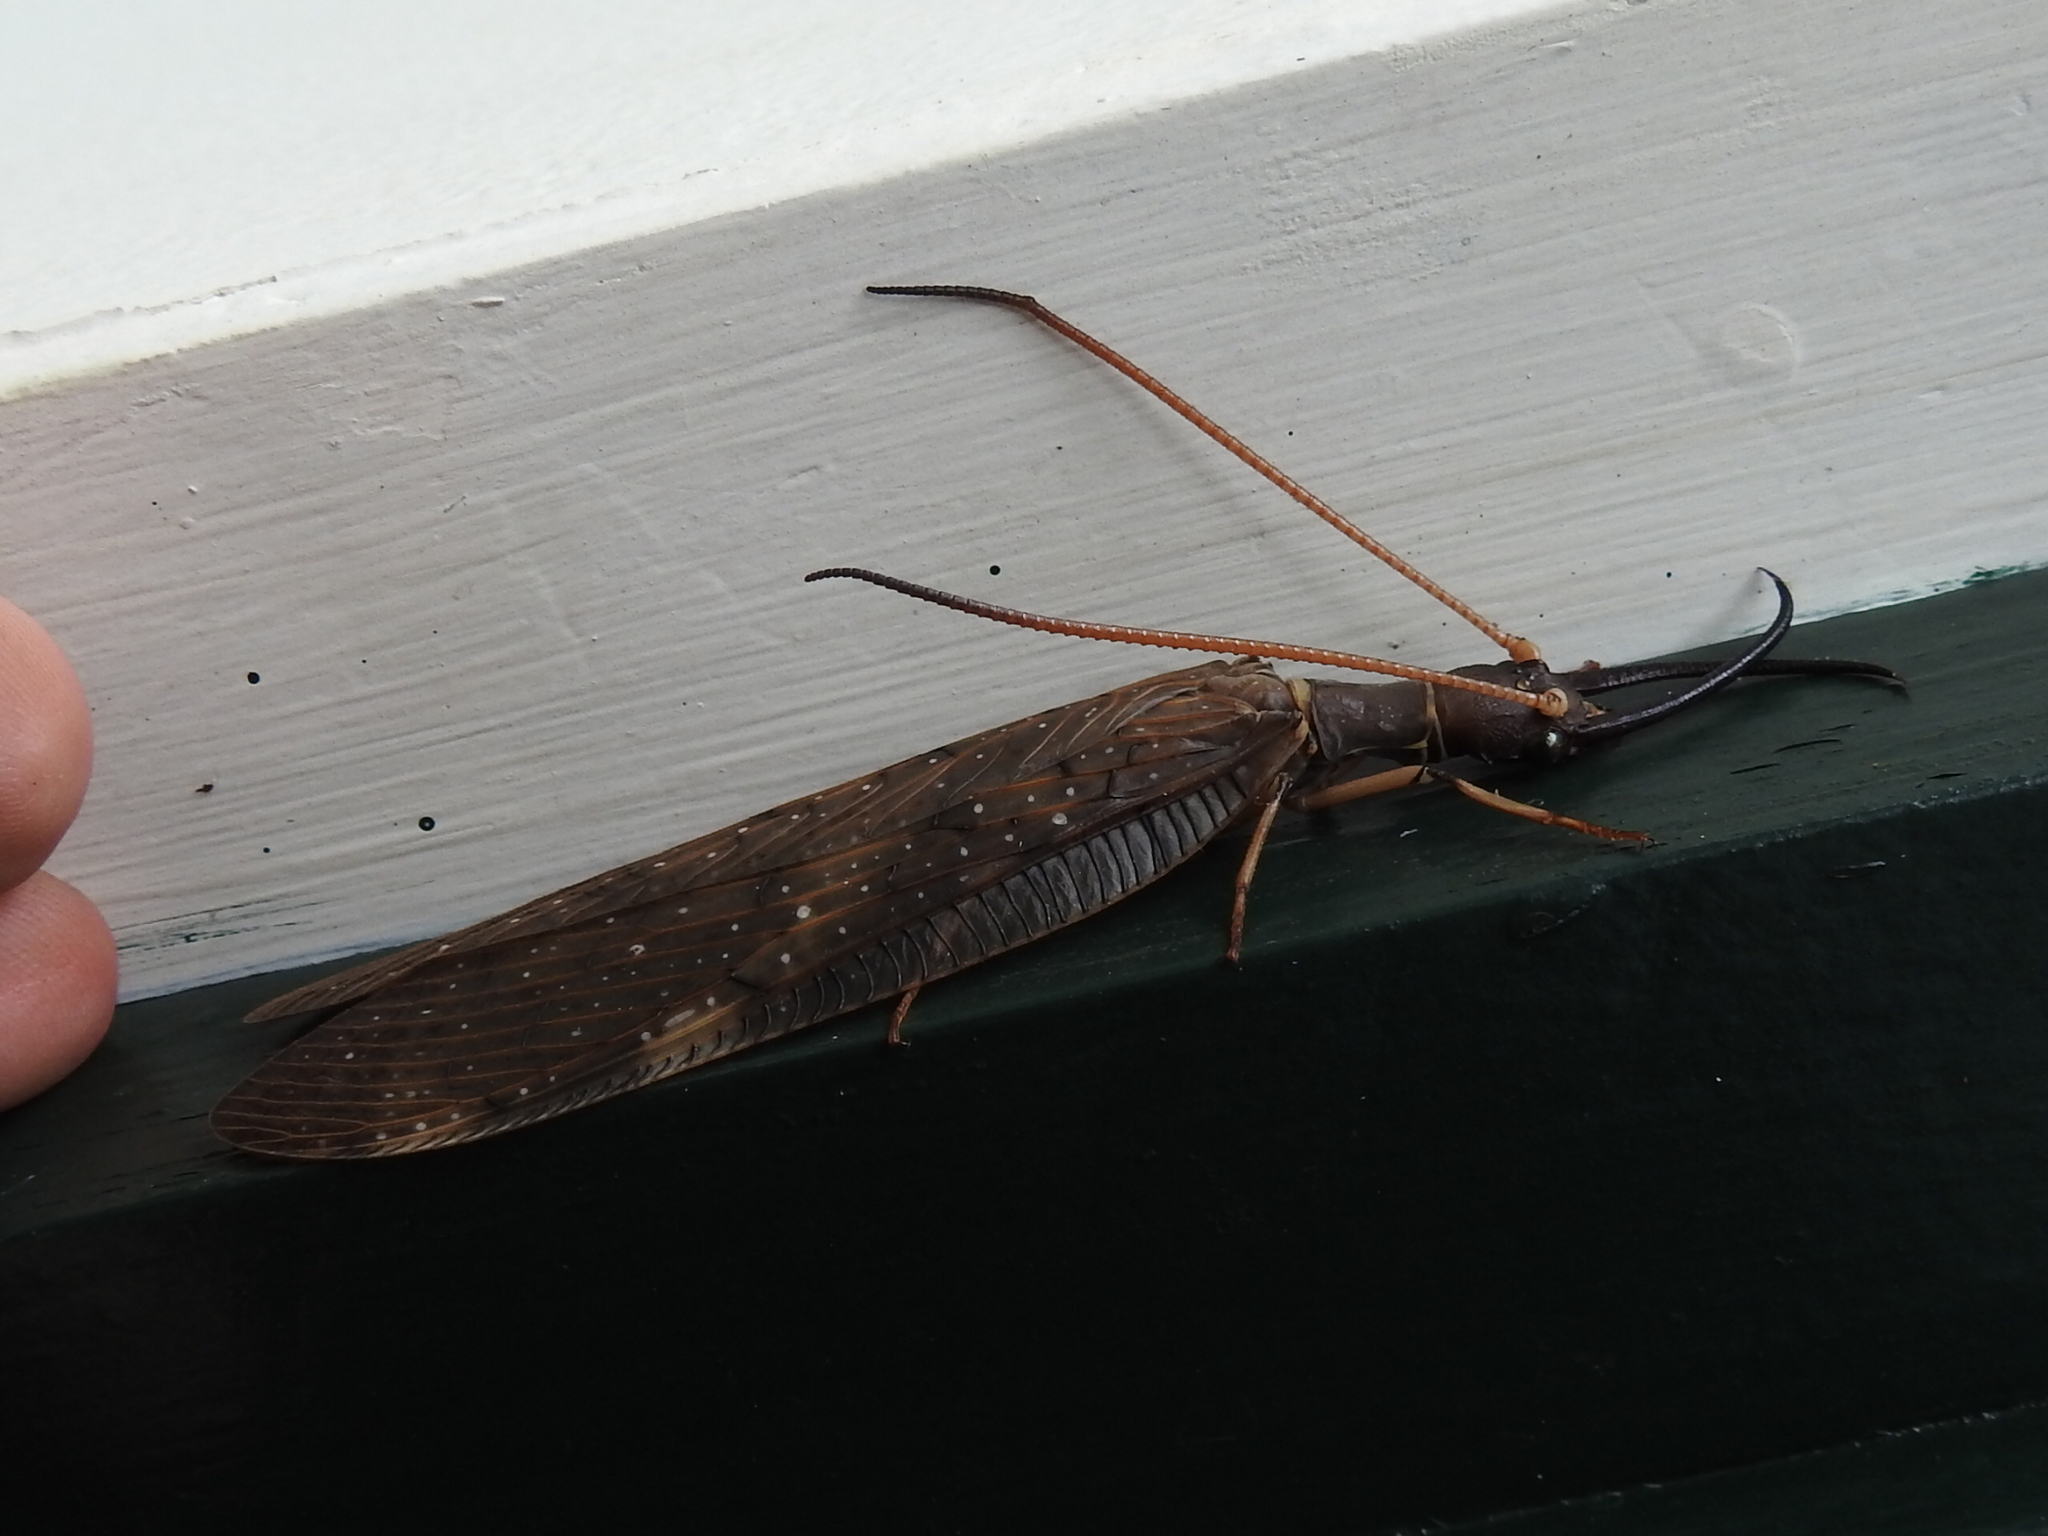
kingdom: Animalia
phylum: Arthropoda
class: Insecta
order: Megaloptera
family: Corydalidae
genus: Corydalus
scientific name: Corydalus peruvianus
